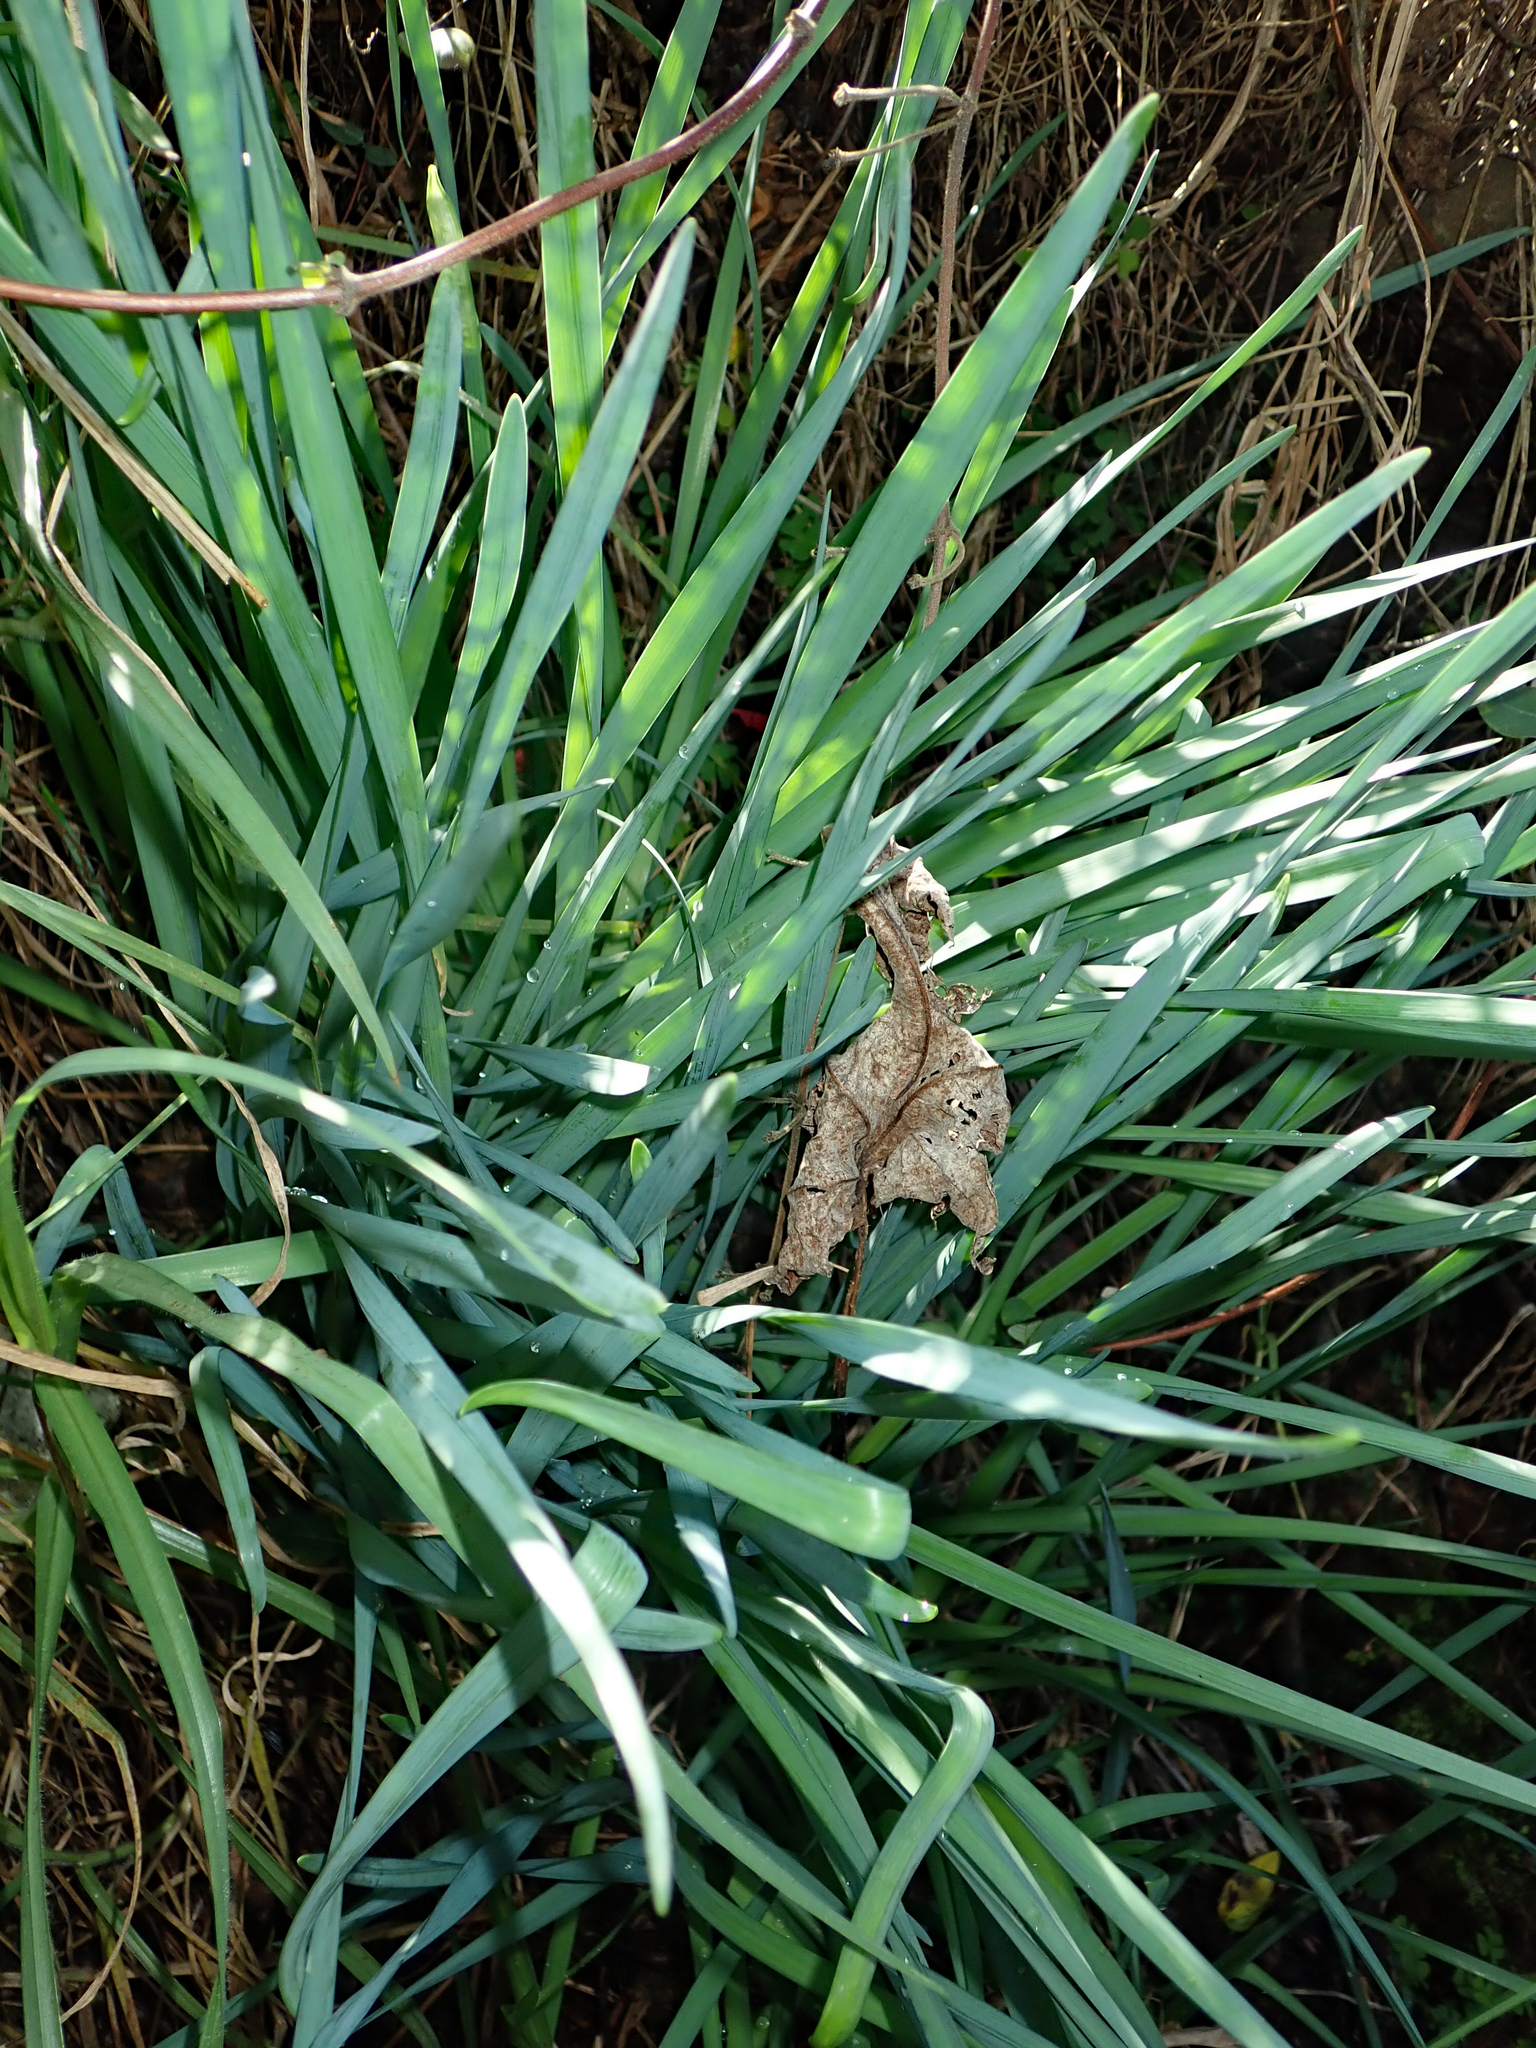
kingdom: Plantae
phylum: Tracheophyta
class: Liliopsida
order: Asparagales
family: Amaryllidaceae
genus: Narcissus
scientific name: Narcissus papyraceus
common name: Paper-white daffodil
